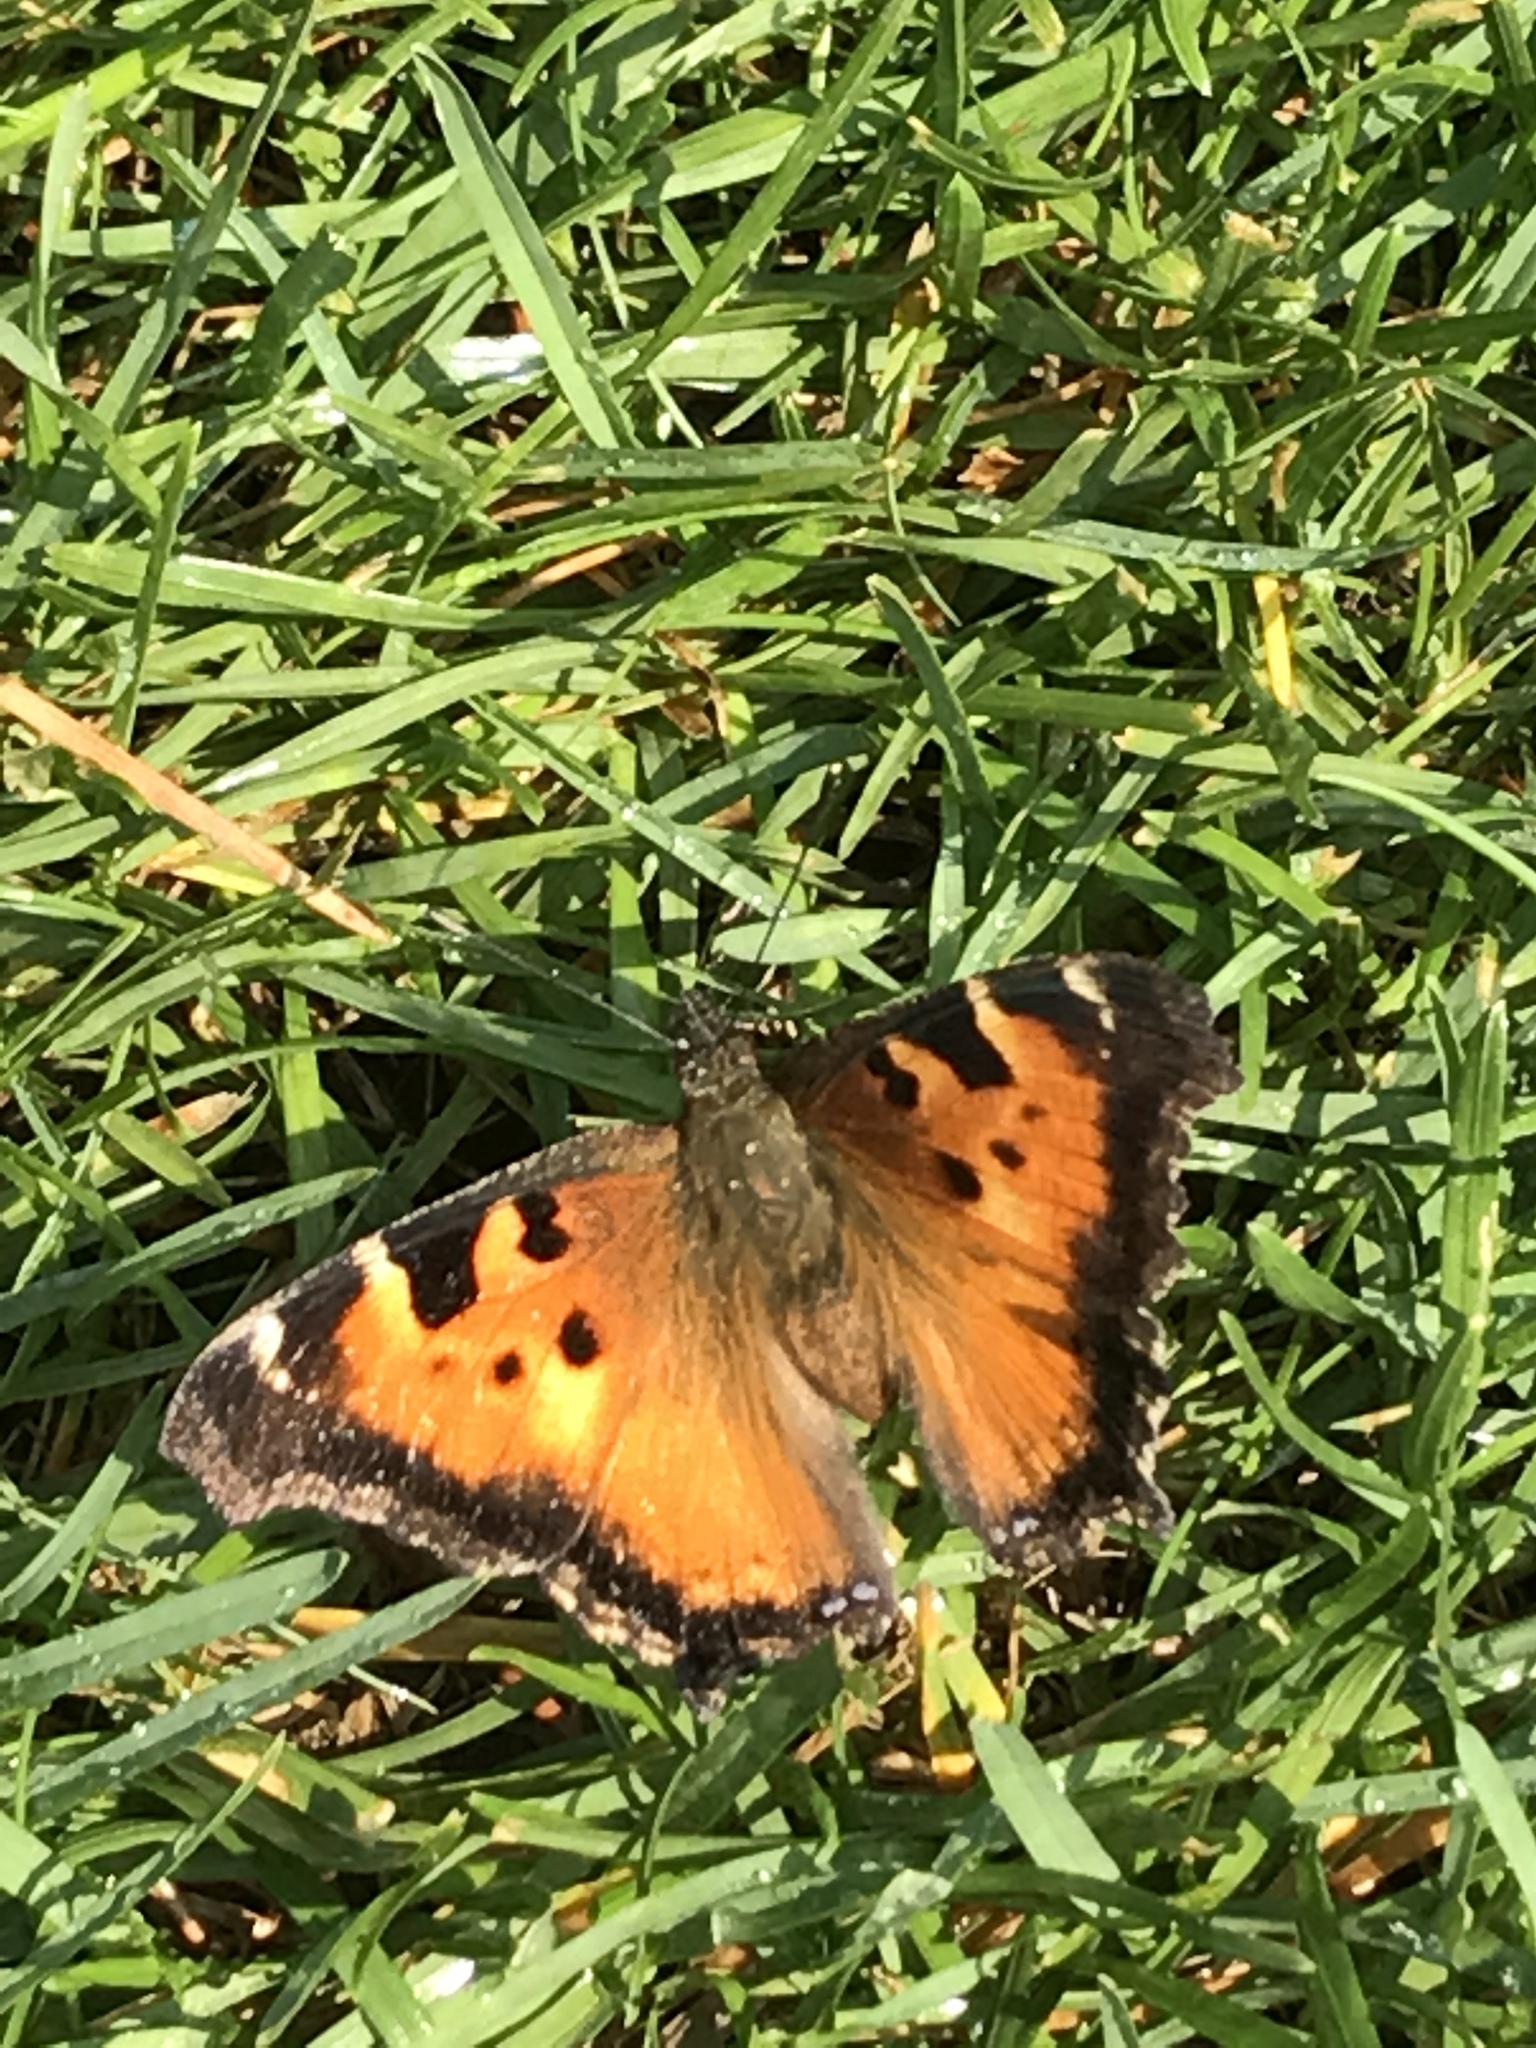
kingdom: Animalia
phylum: Arthropoda
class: Insecta
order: Lepidoptera
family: Nymphalidae
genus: Nymphalis
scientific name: Nymphalis californica
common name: California tortoiseshell
